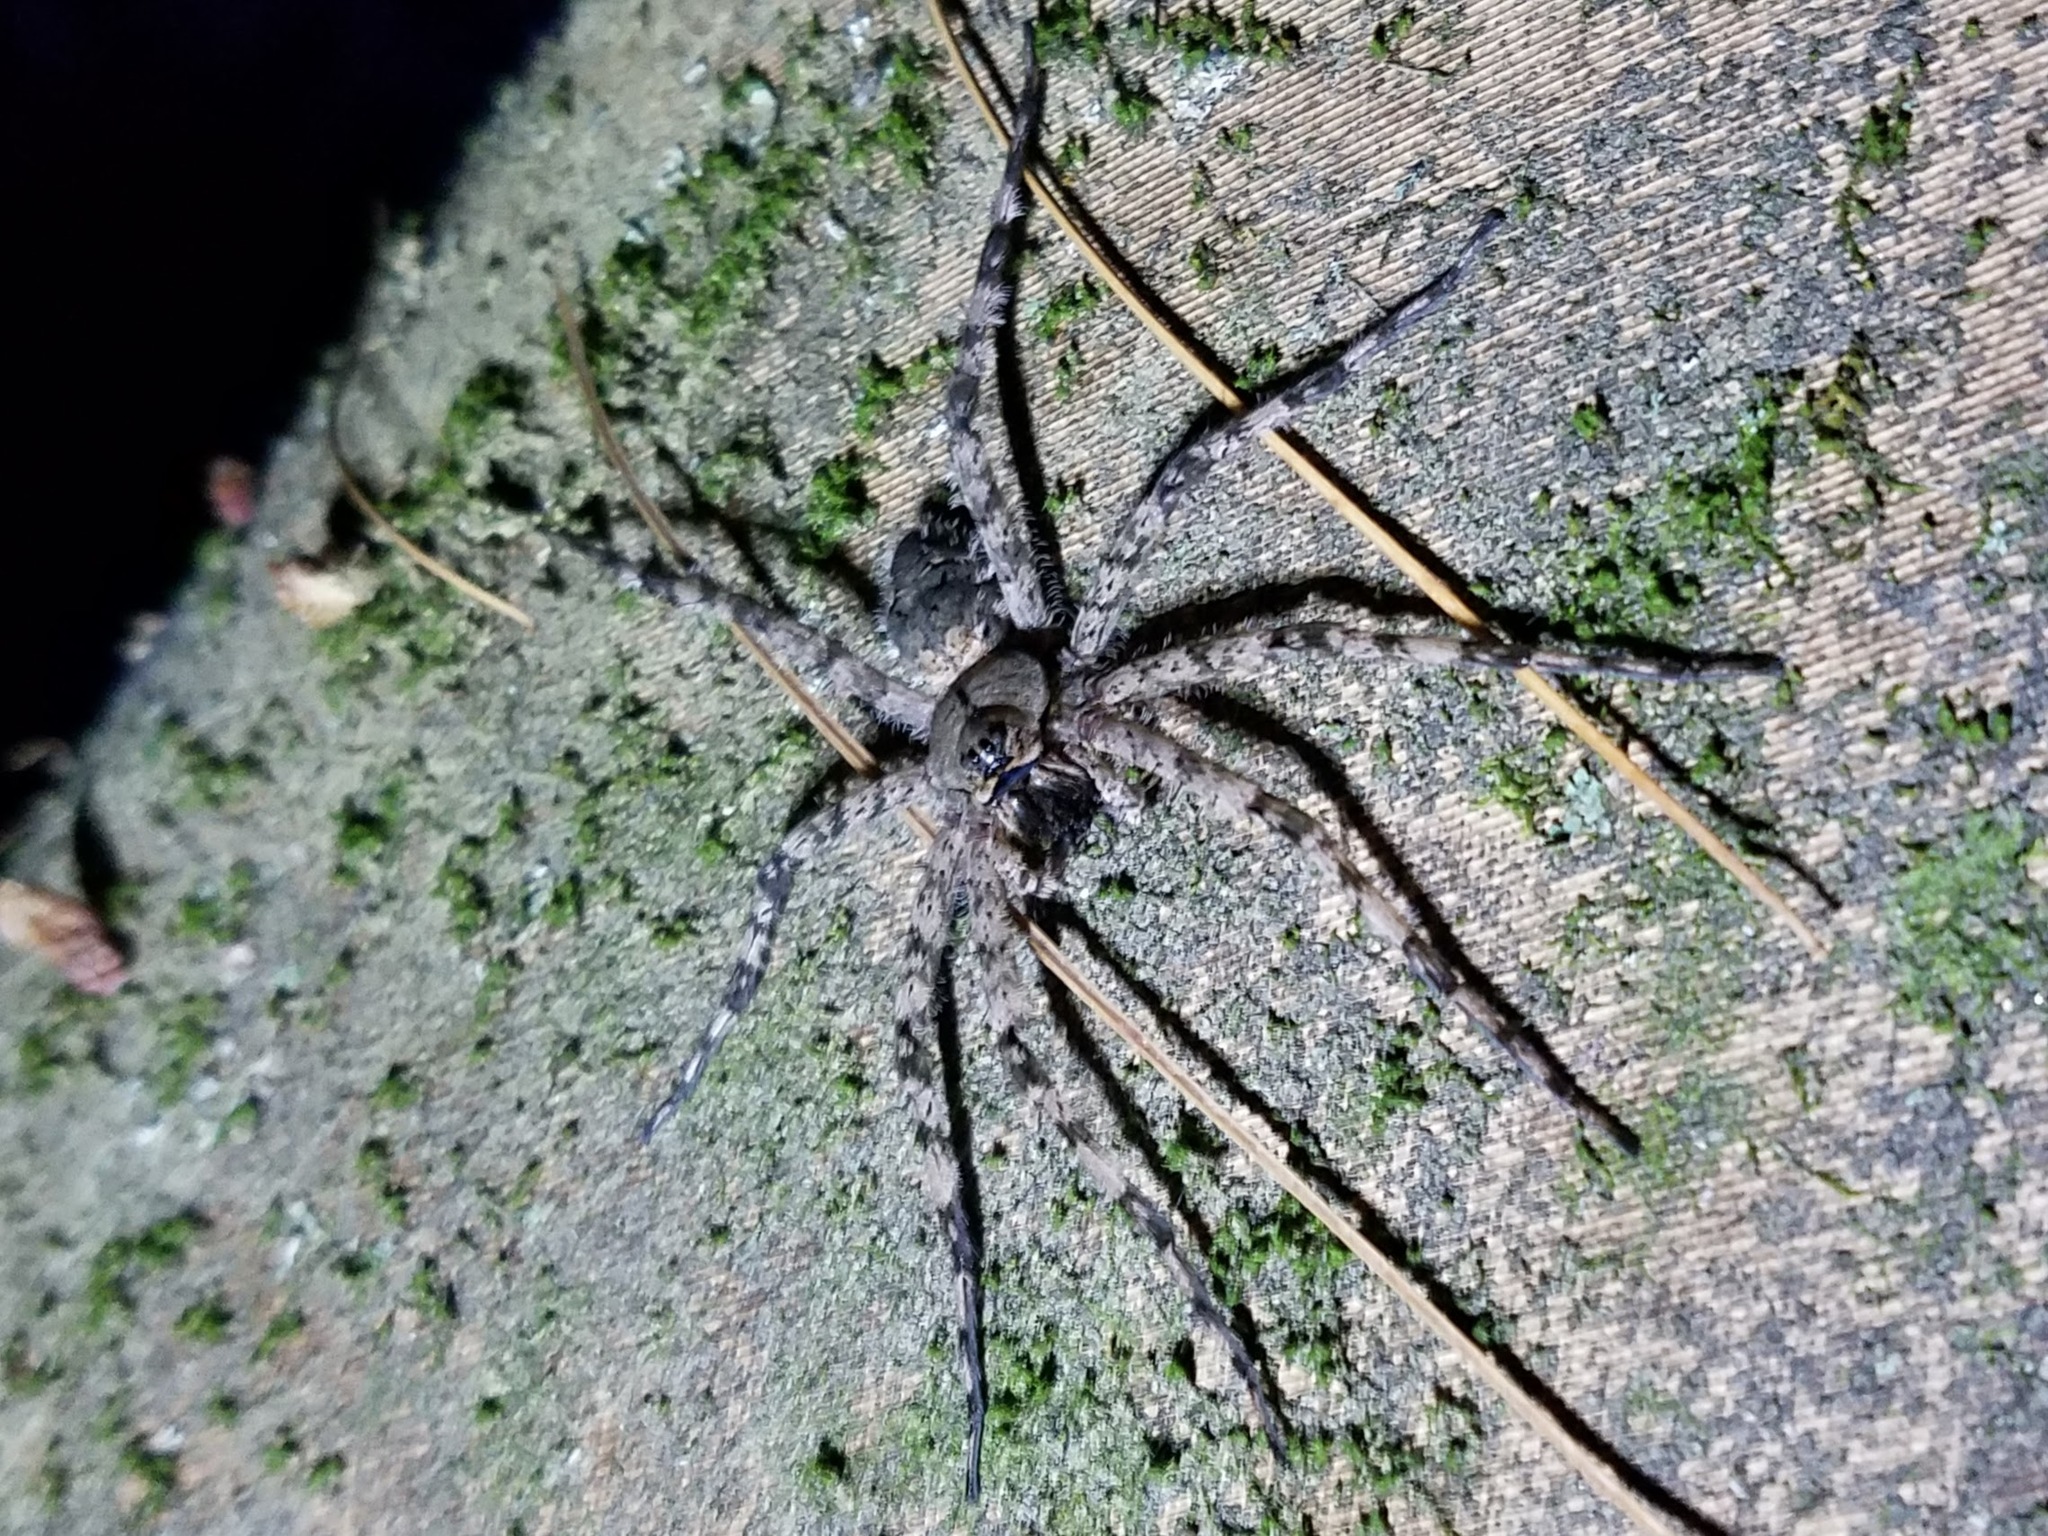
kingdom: Animalia
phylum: Arthropoda
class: Arachnida
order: Araneae
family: Pisauridae
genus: Dolomedes
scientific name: Dolomedes albineus
